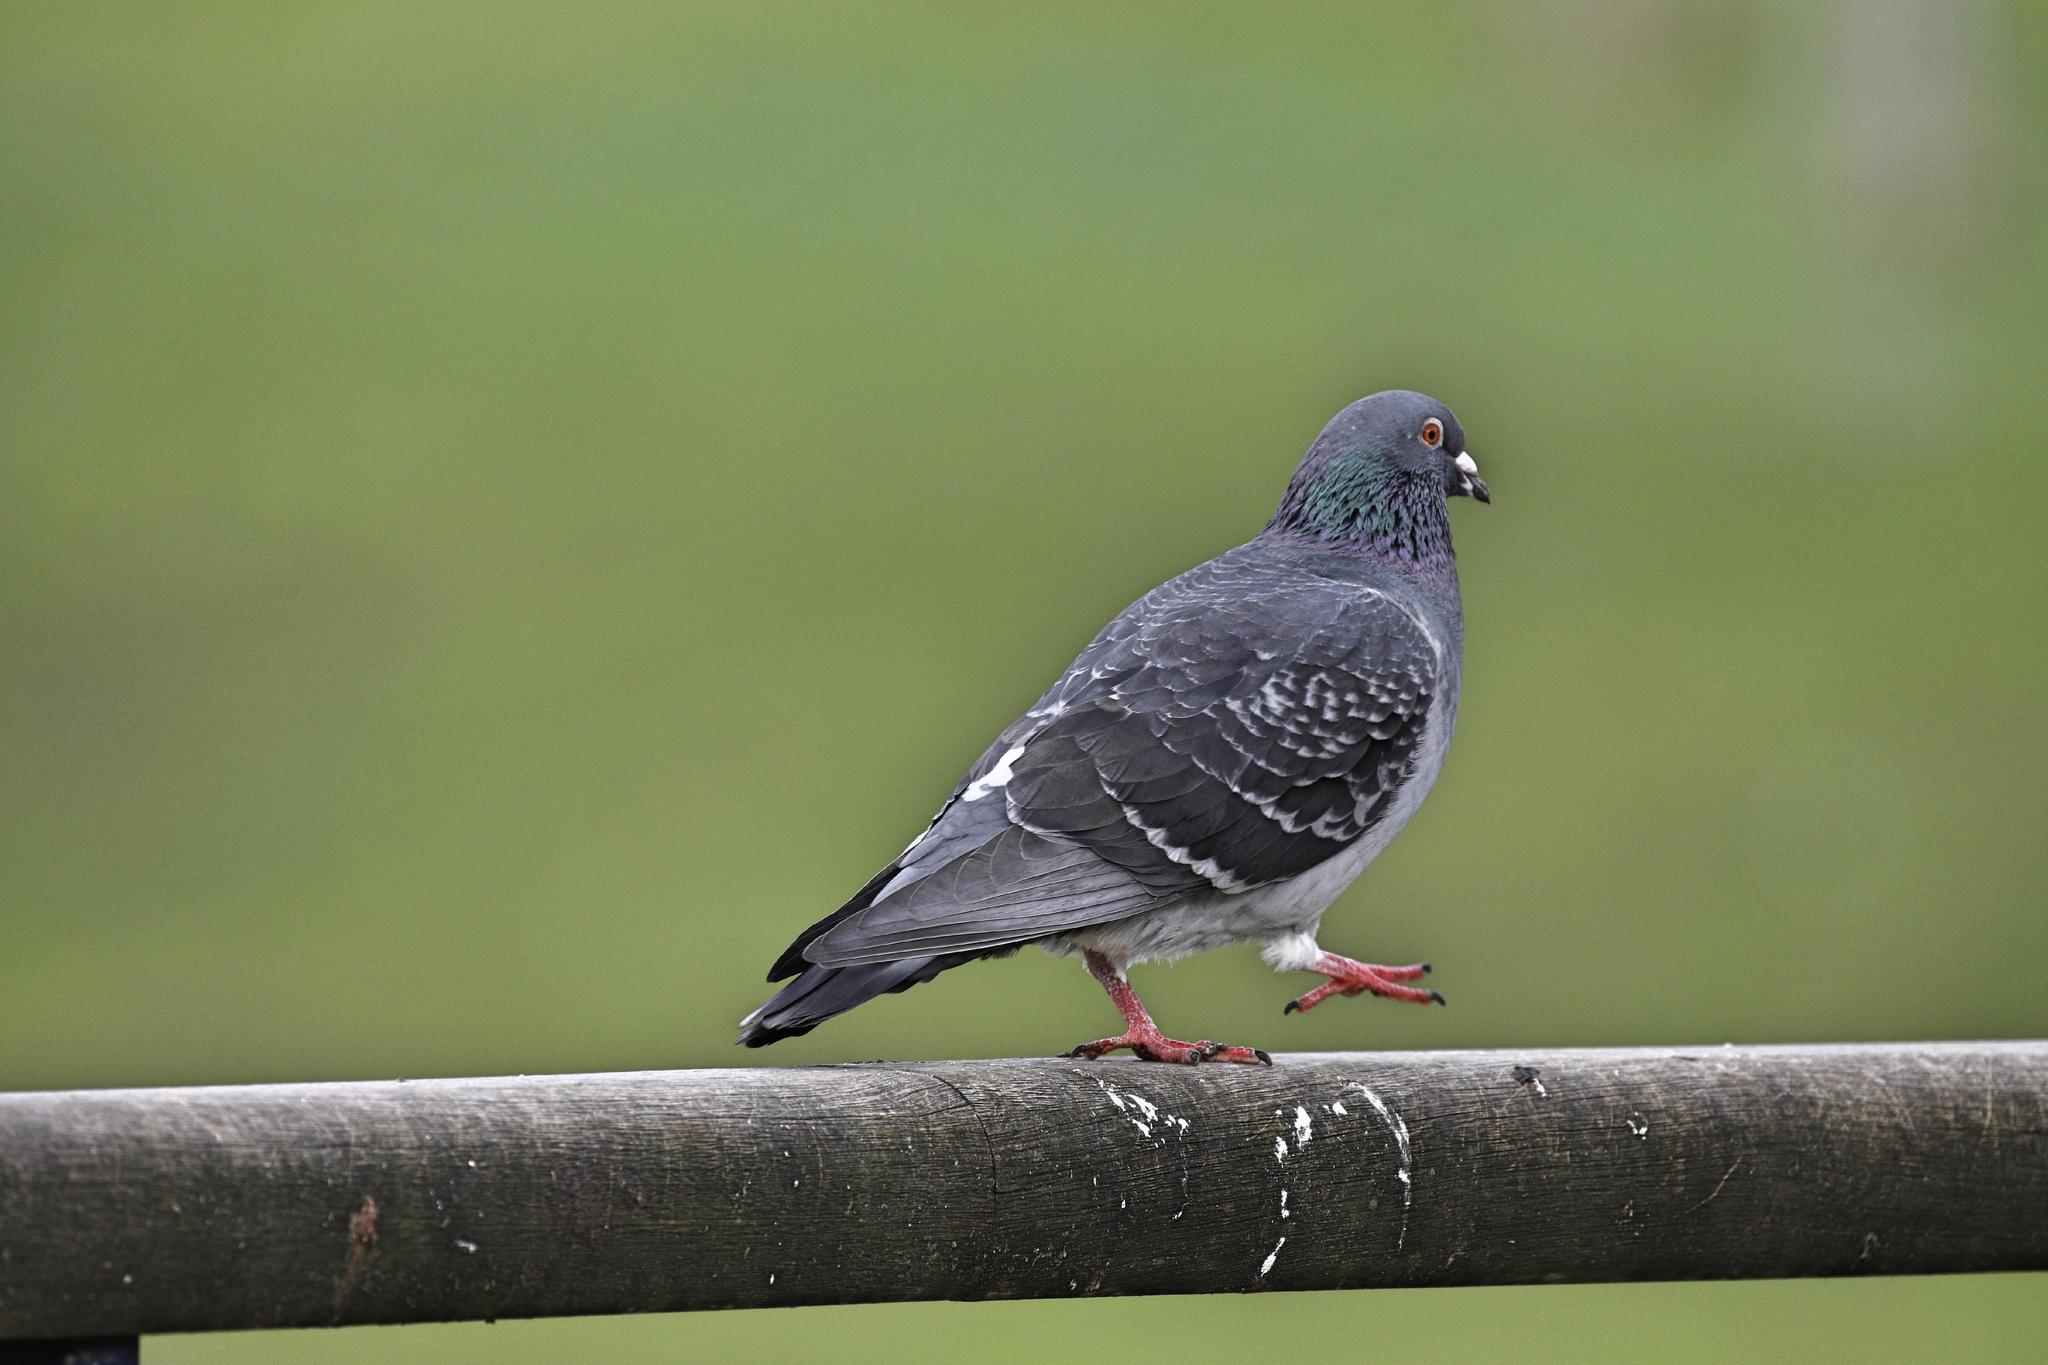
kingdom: Animalia
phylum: Chordata
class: Aves
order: Columbiformes
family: Columbidae
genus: Columba
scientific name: Columba livia
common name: Rock pigeon
